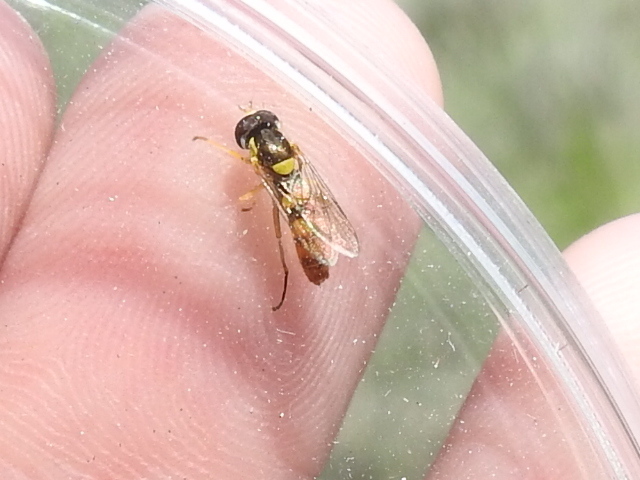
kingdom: Animalia
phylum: Arthropoda
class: Insecta
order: Diptera
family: Syrphidae
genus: Sphaerophoria
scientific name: Sphaerophoria contigua
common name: Tufted globetail
